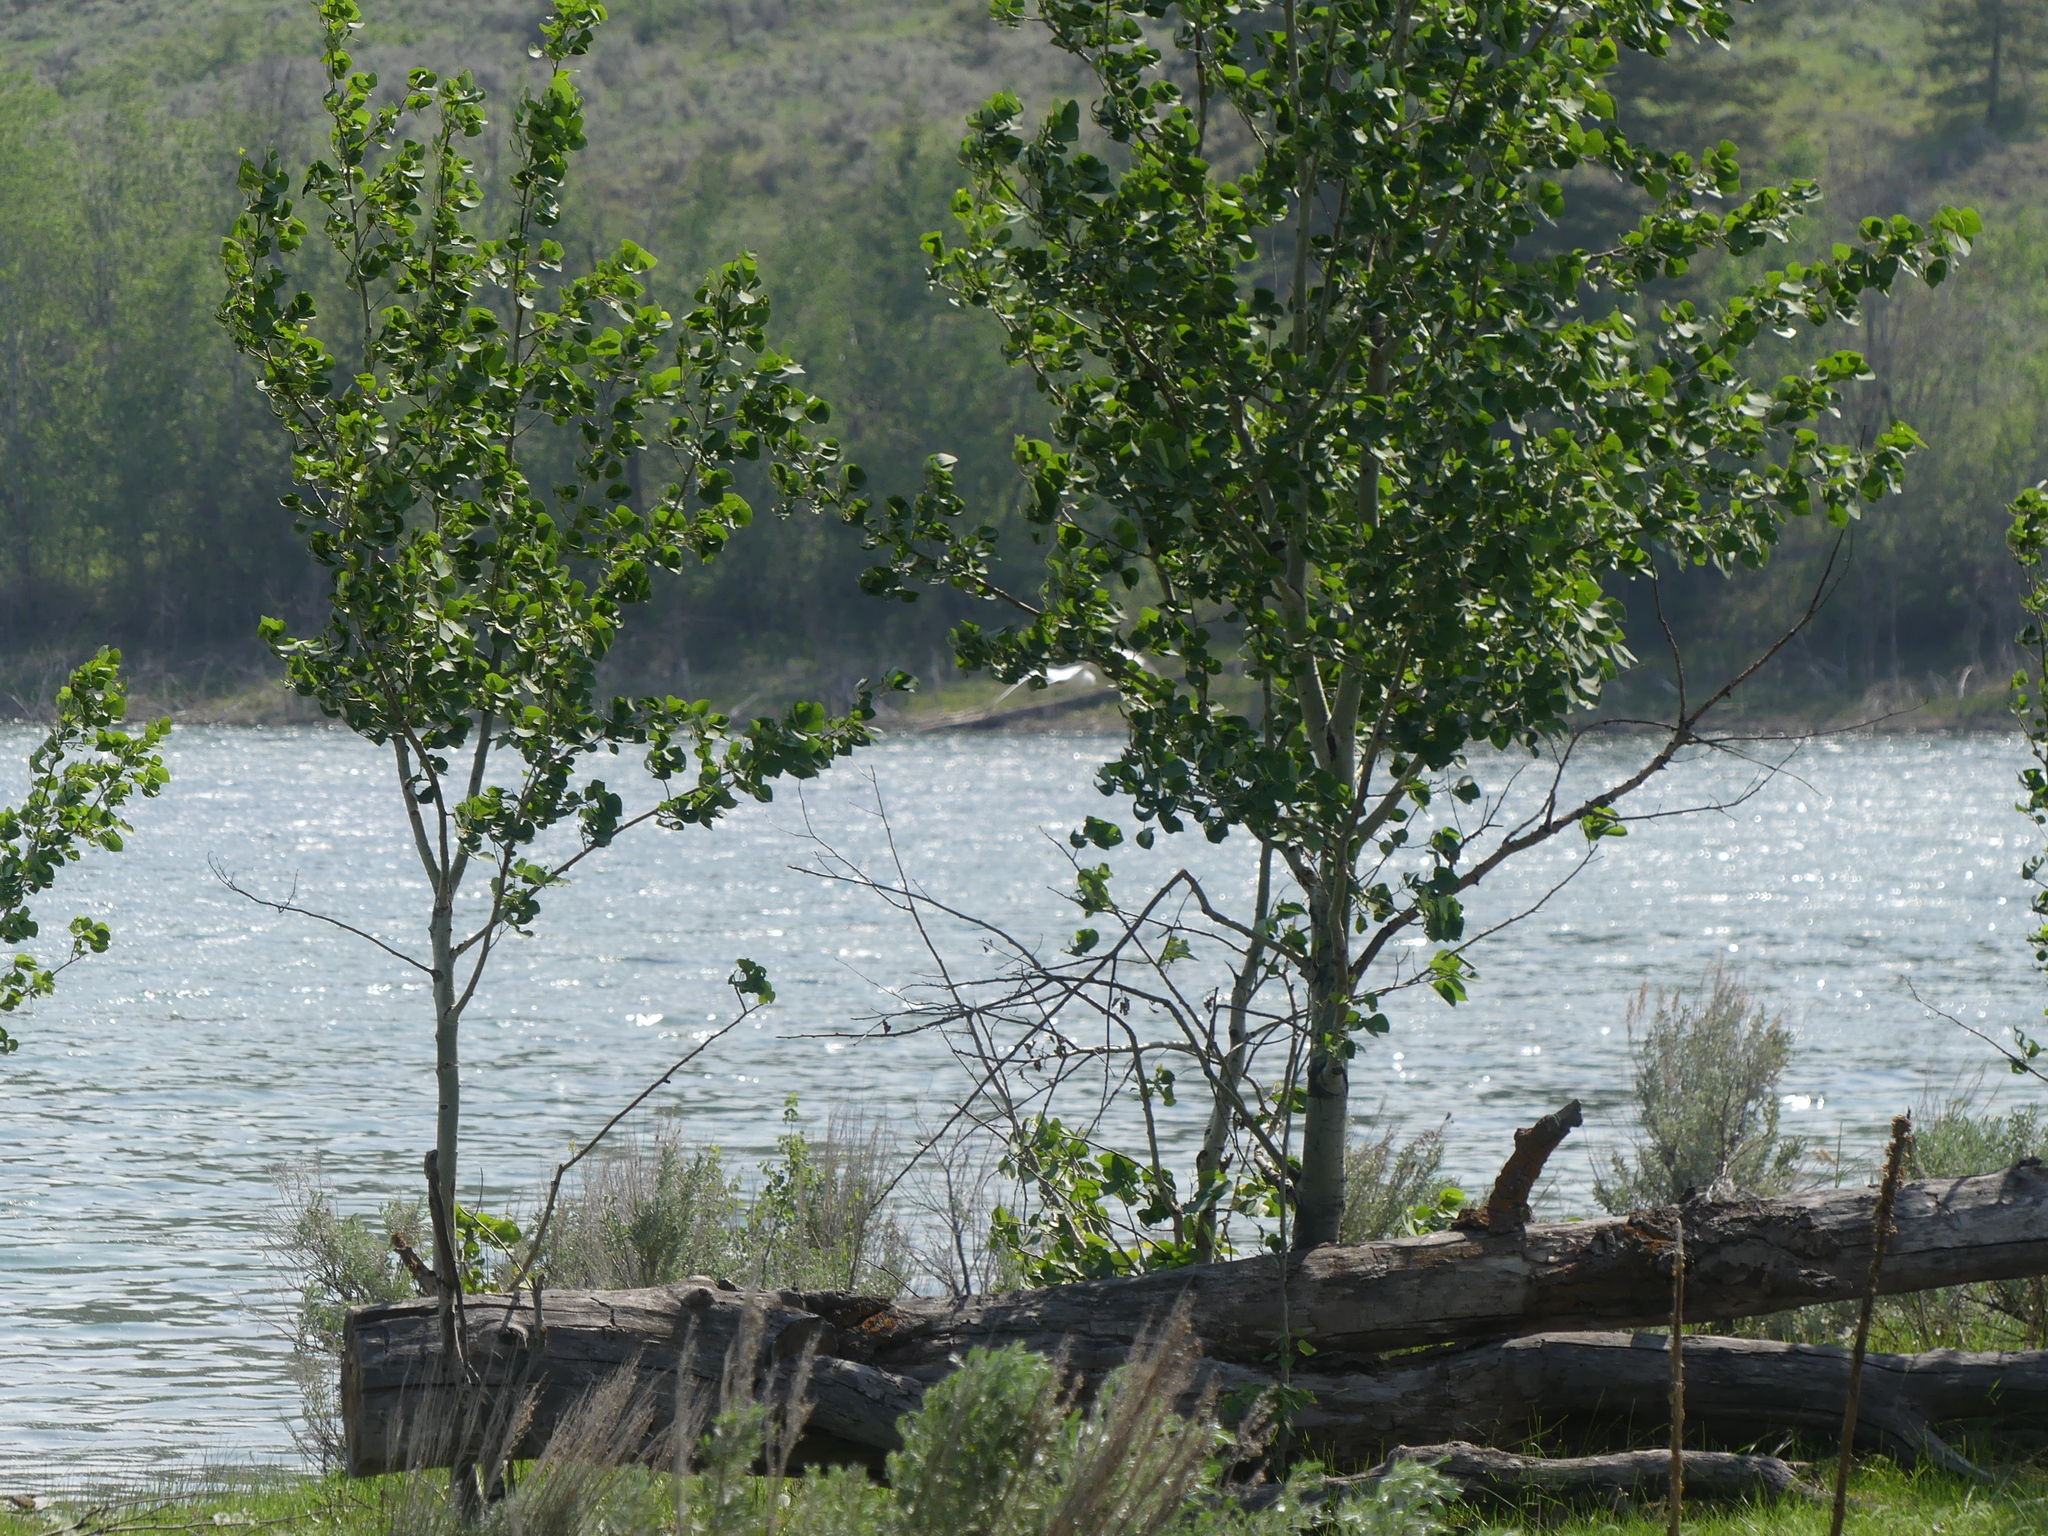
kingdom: Plantae
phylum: Tracheophyta
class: Magnoliopsida
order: Malpighiales
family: Salicaceae
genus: Populus
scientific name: Populus tremuloides
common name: Quaking aspen
